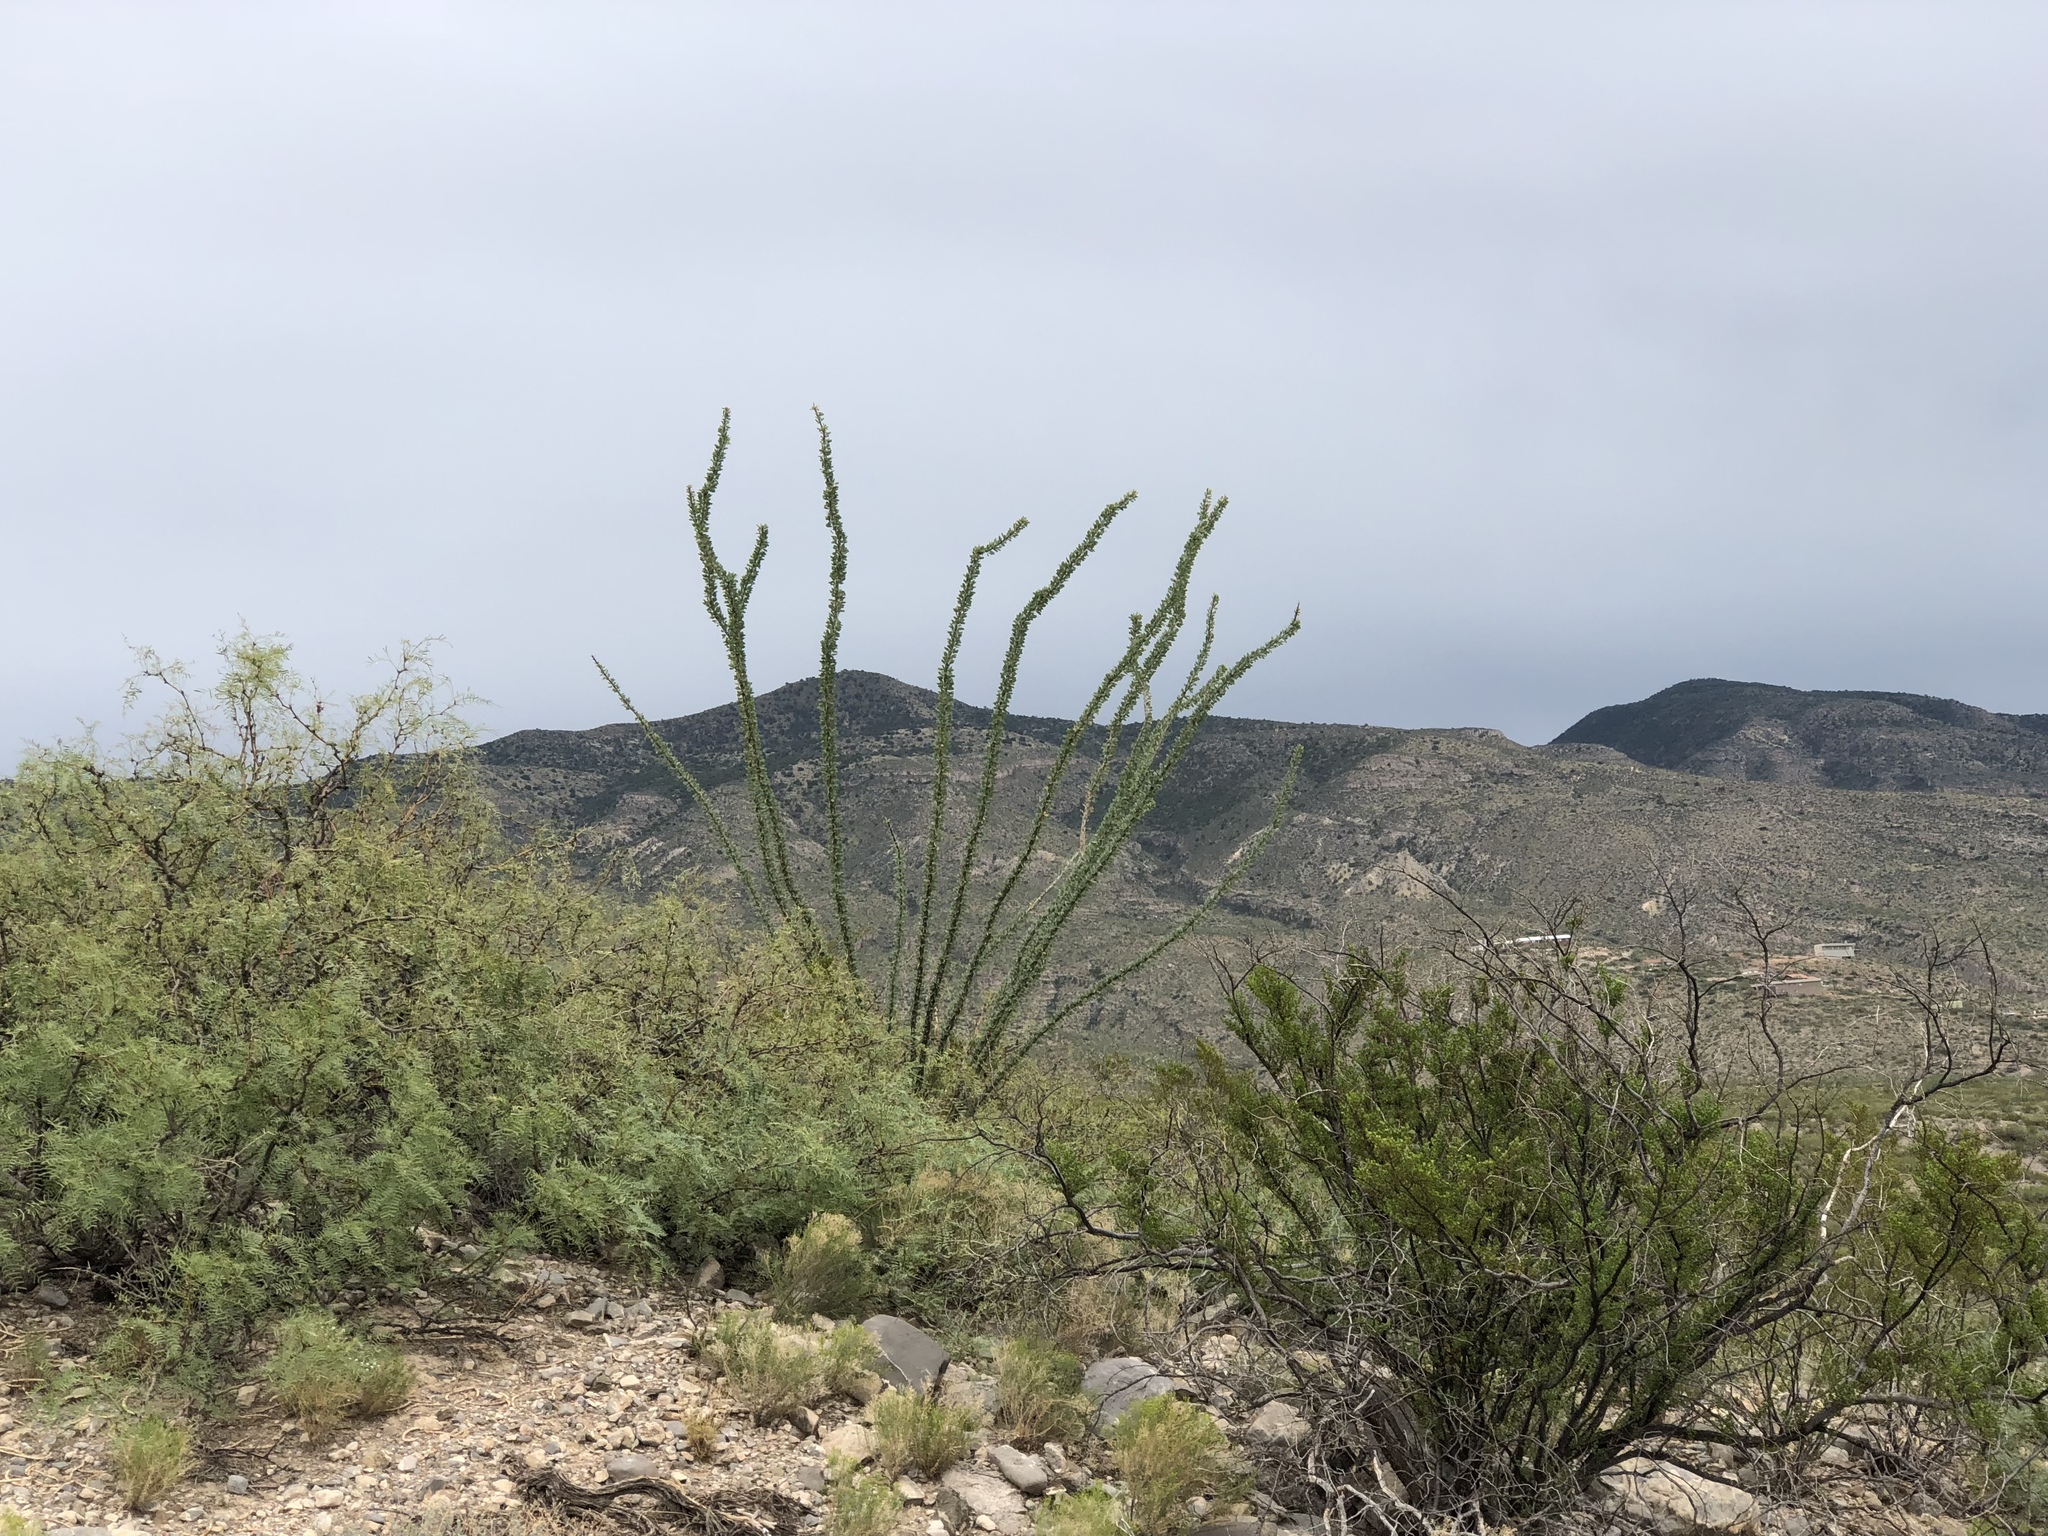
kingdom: Plantae
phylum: Tracheophyta
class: Magnoliopsida
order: Ericales
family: Fouquieriaceae
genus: Fouquieria
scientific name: Fouquieria splendens
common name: Vine-cactus
